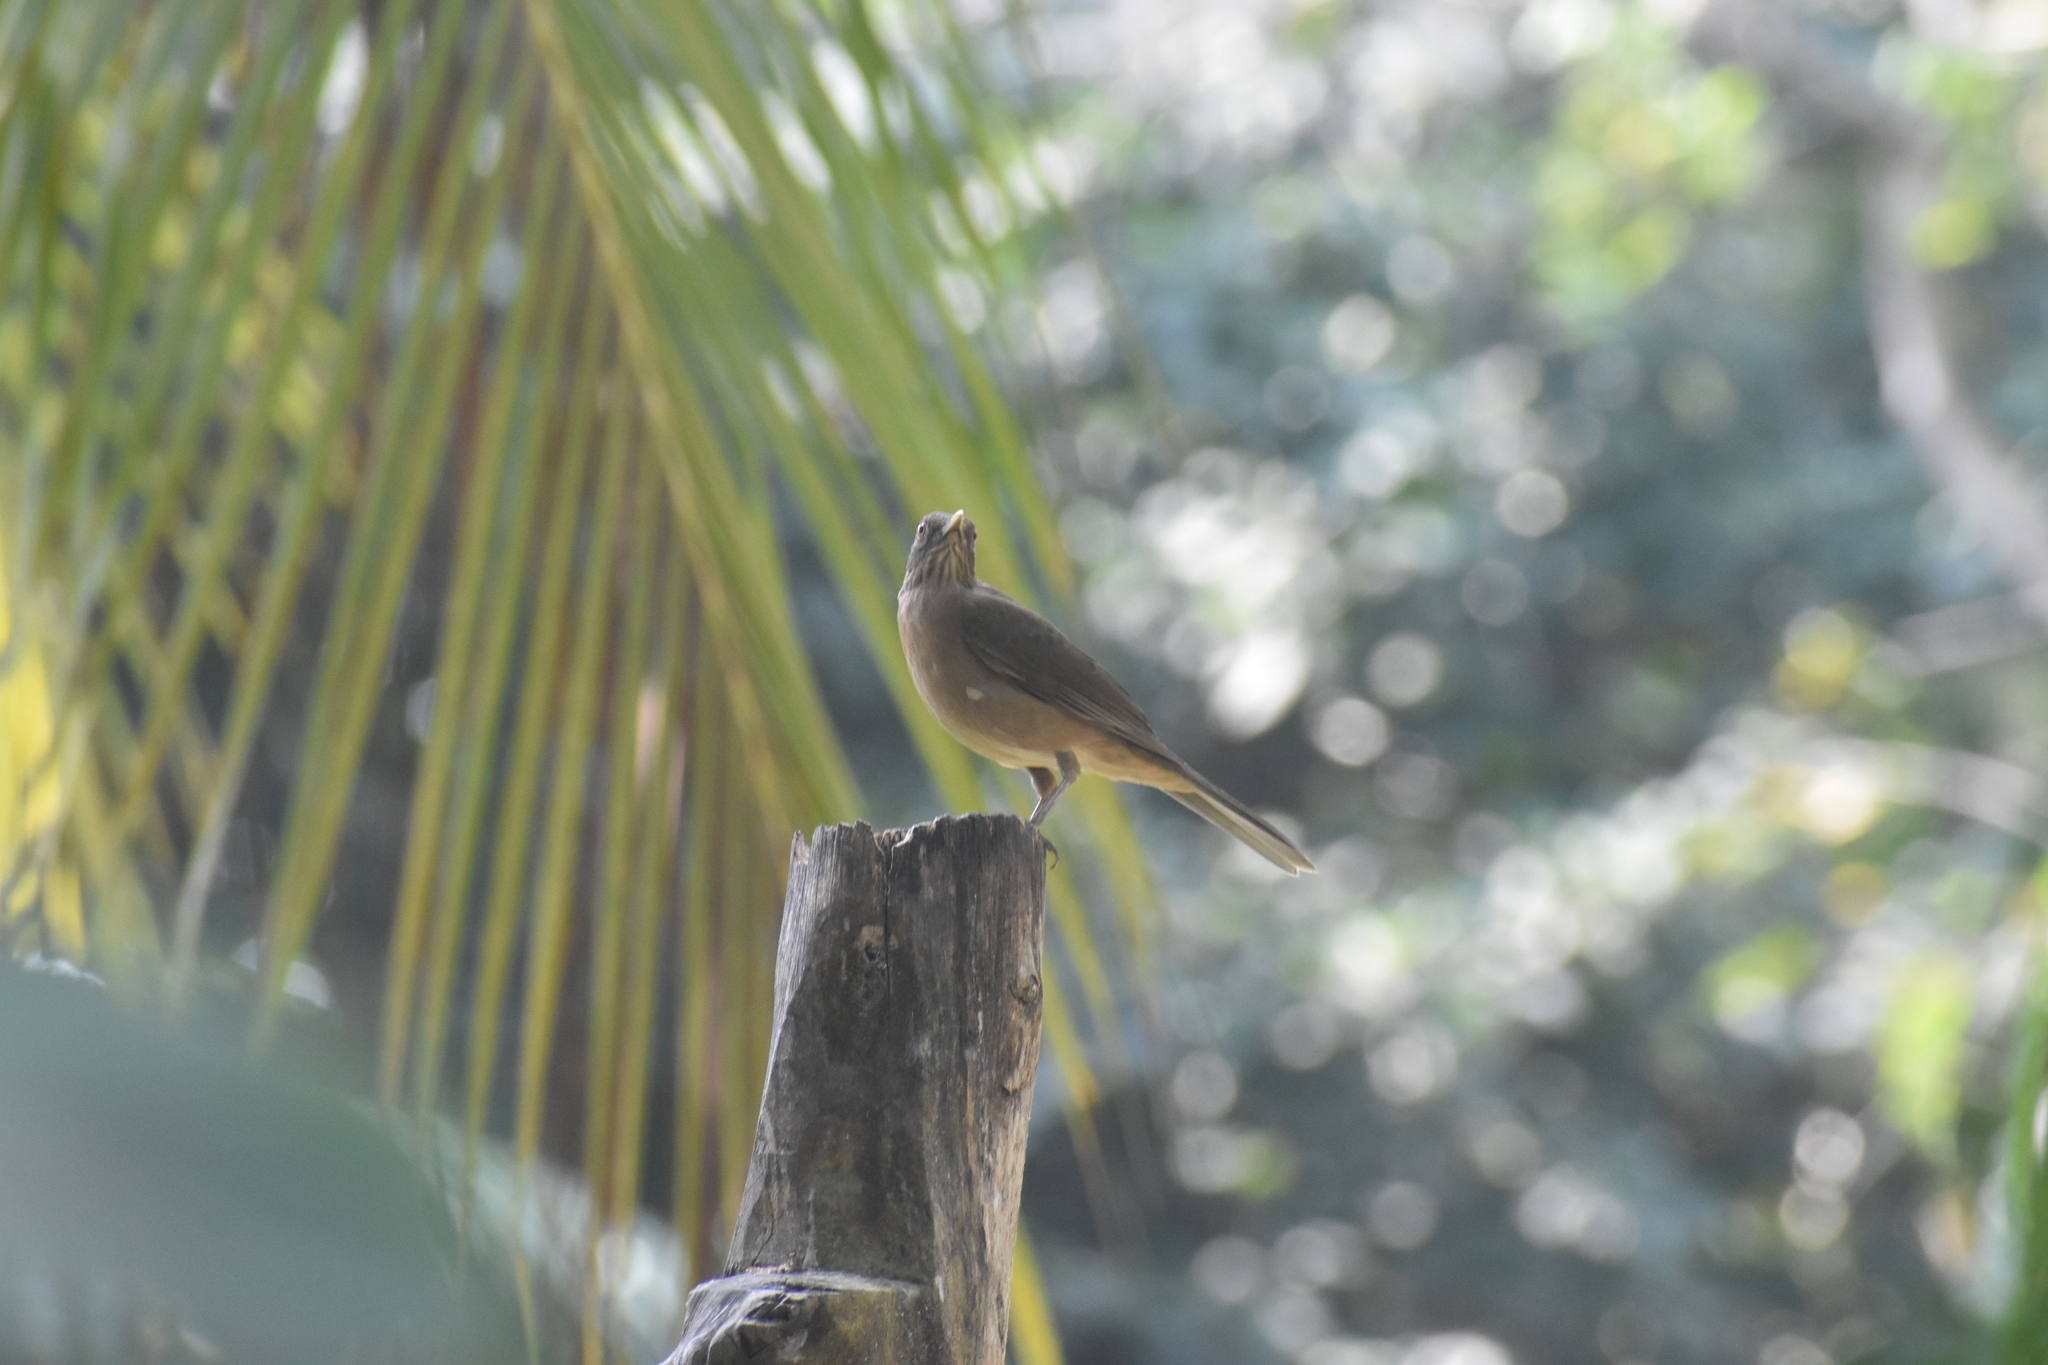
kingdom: Animalia
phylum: Chordata
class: Aves
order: Passeriformes
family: Turdidae
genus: Turdus
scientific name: Turdus grayi
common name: Clay-colored thrush
